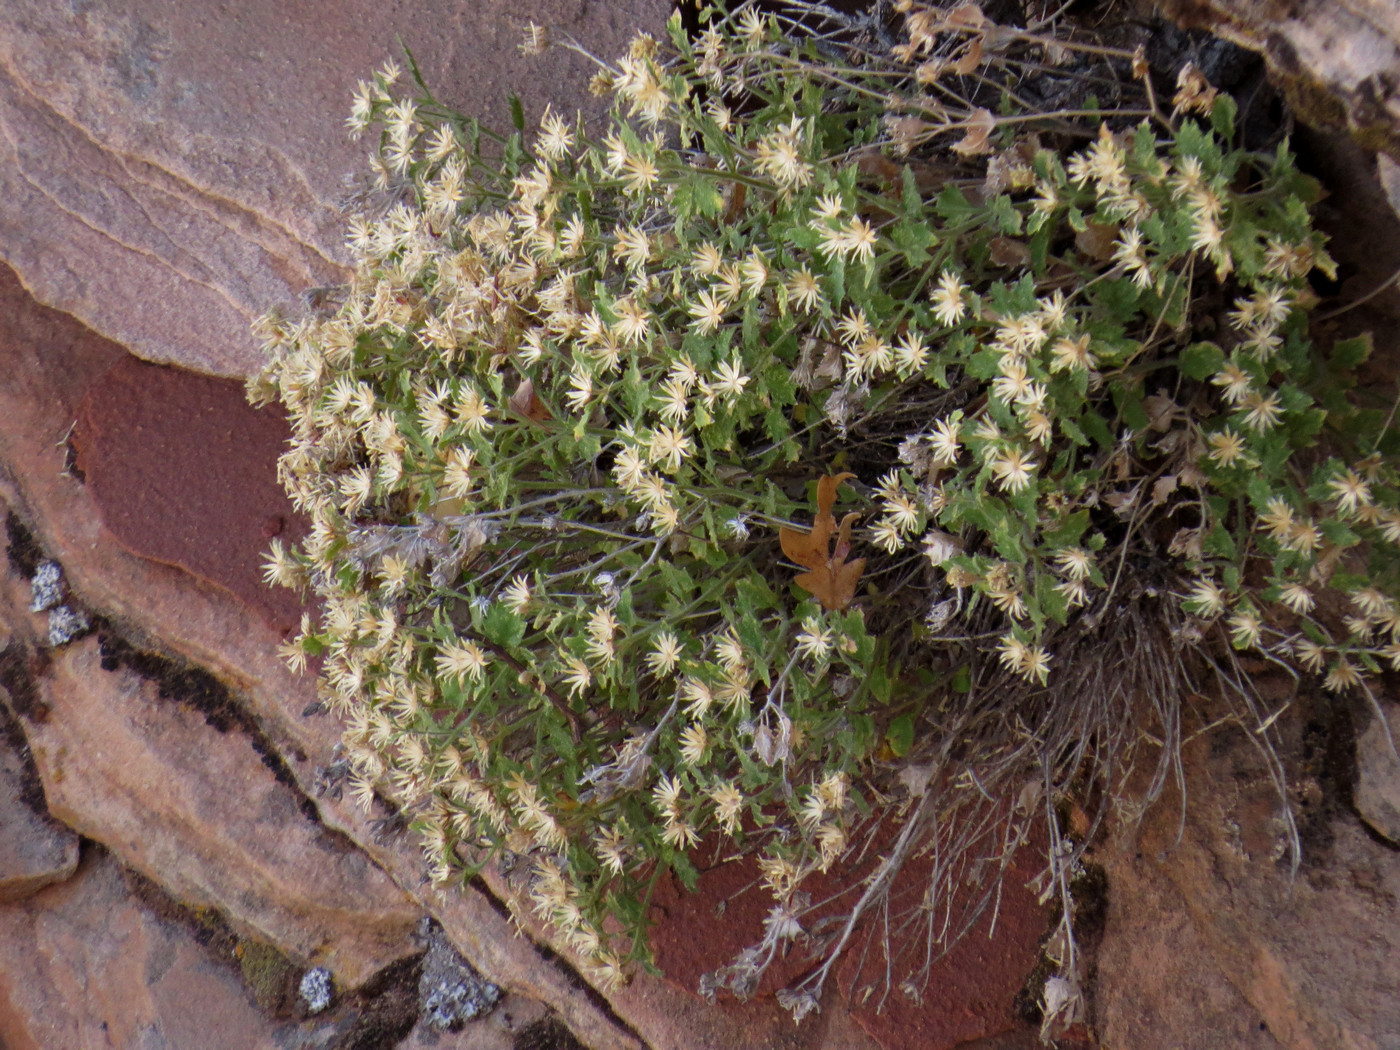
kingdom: Plantae
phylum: Tracheophyta
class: Magnoliopsida
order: Asterales
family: Asteraceae
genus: Laphamia
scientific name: Laphamia sanchezii
